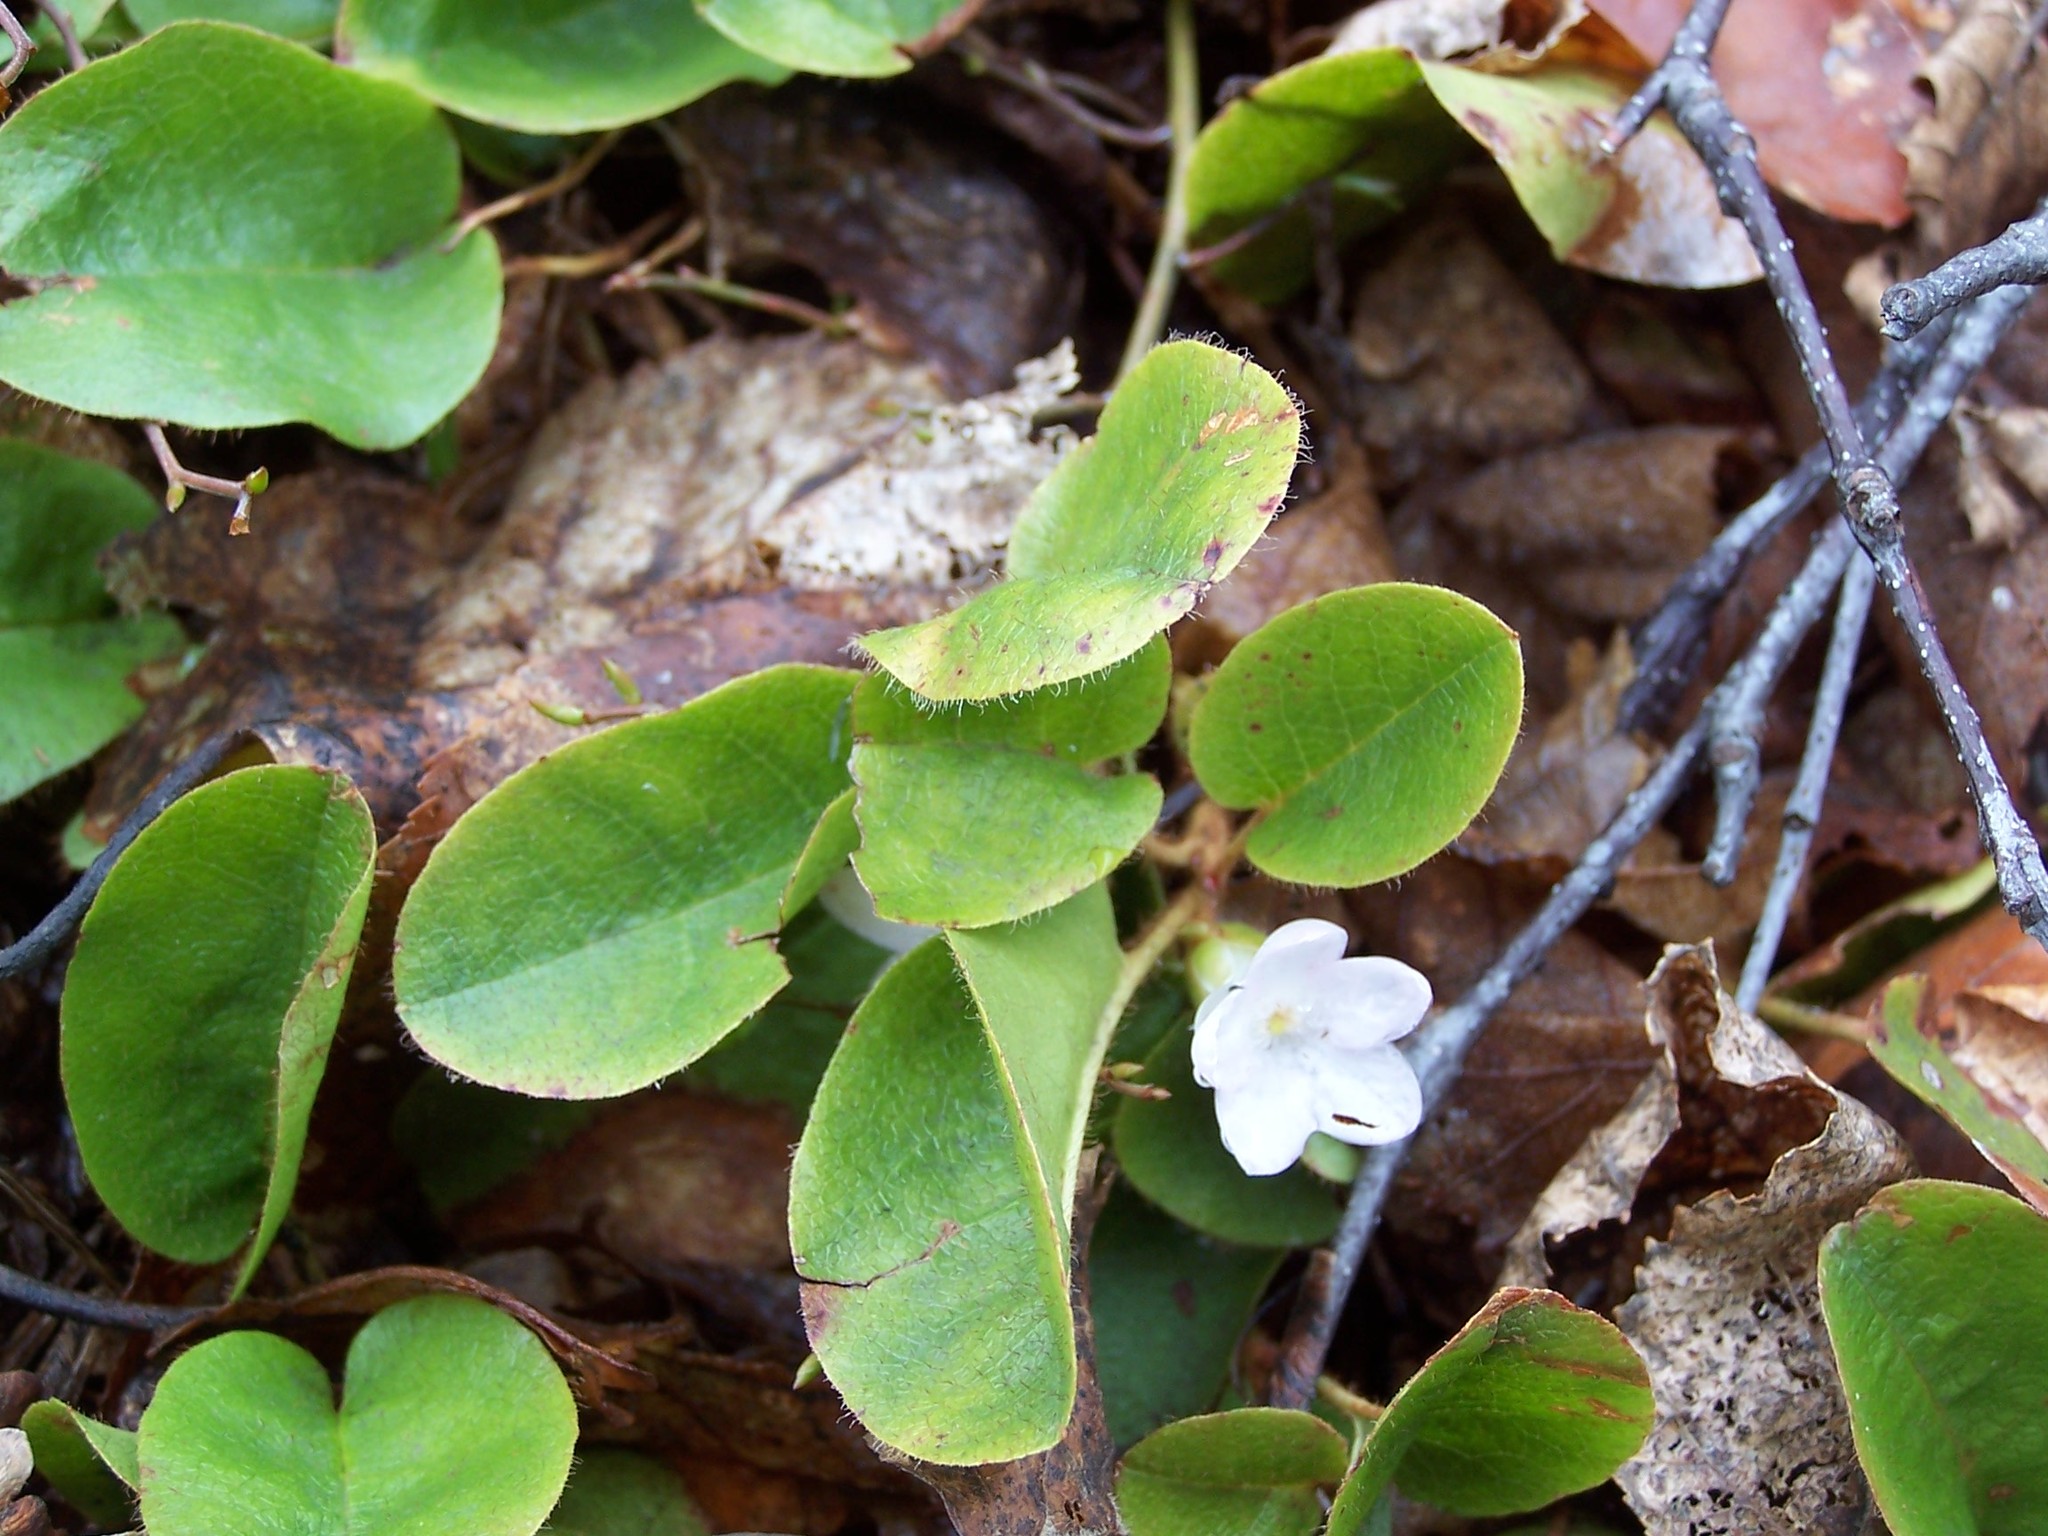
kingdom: Plantae
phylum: Tracheophyta
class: Magnoliopsida
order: Ericales
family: Ericaceae
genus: Epigaea
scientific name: Epigaea repens
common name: Gravelroot
